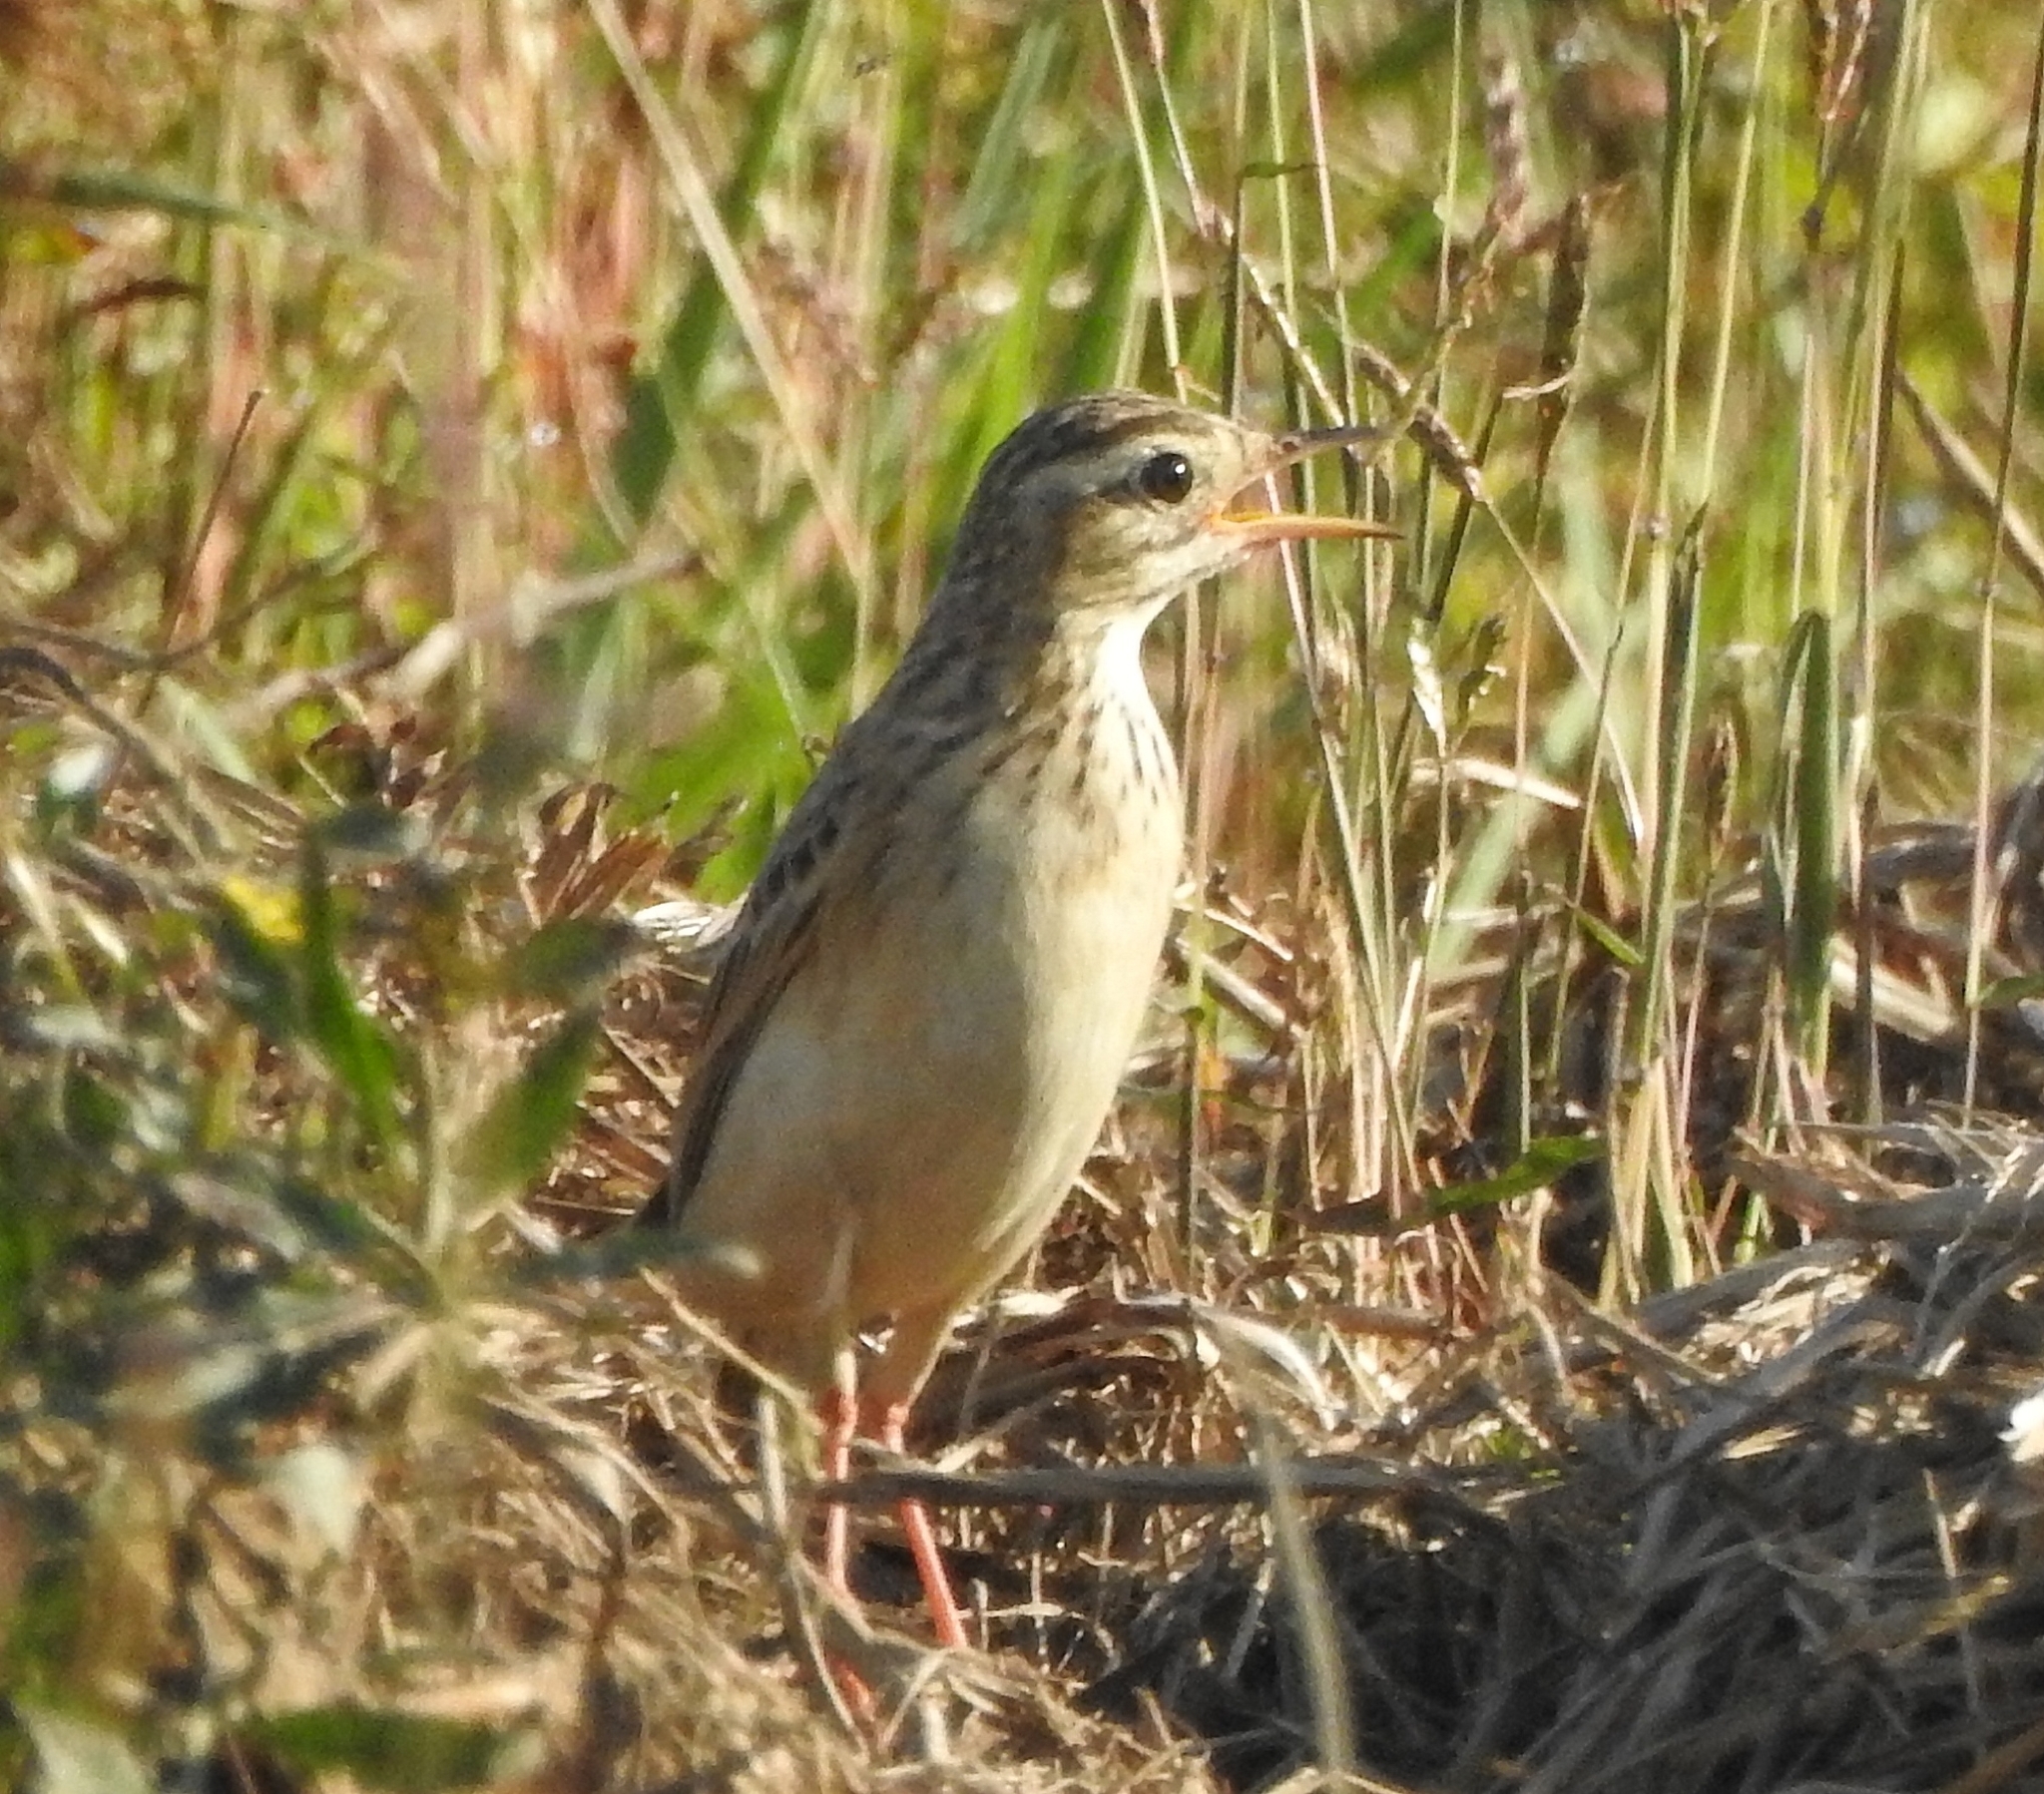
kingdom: Animalia
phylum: Chordata
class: Aves
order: Passeriformes
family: Motacillidae
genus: Anthus
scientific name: Anthus godlewskii
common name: Blyth's pipit
